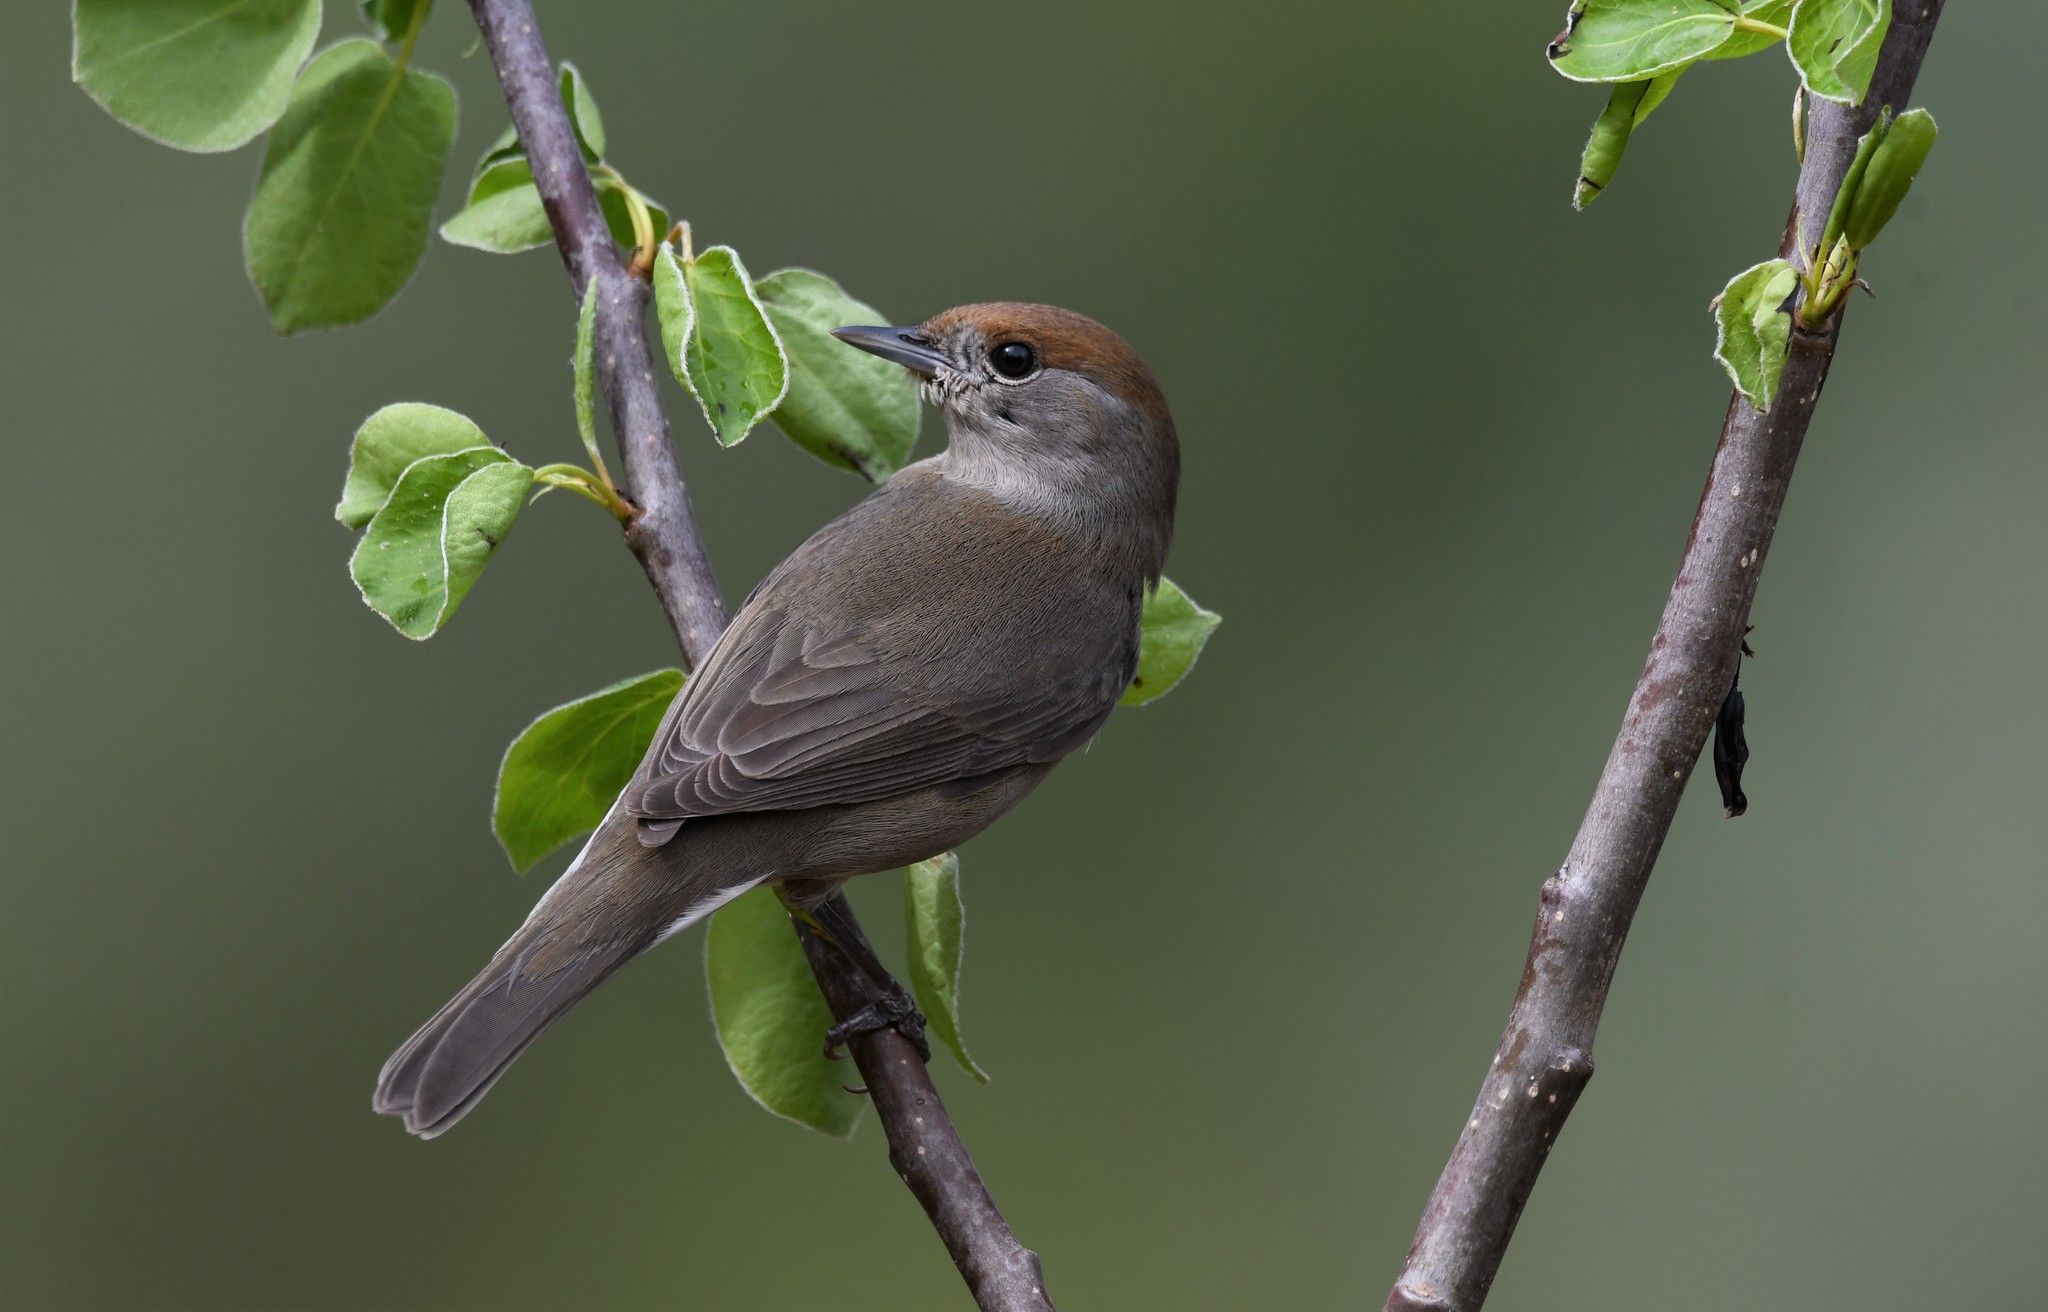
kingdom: Animalia
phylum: Chordata
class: Aves
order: Passeriformes
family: Sylviidae
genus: Sylvia
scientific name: Sylvia atricapilla
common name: Eurasian blackcap
